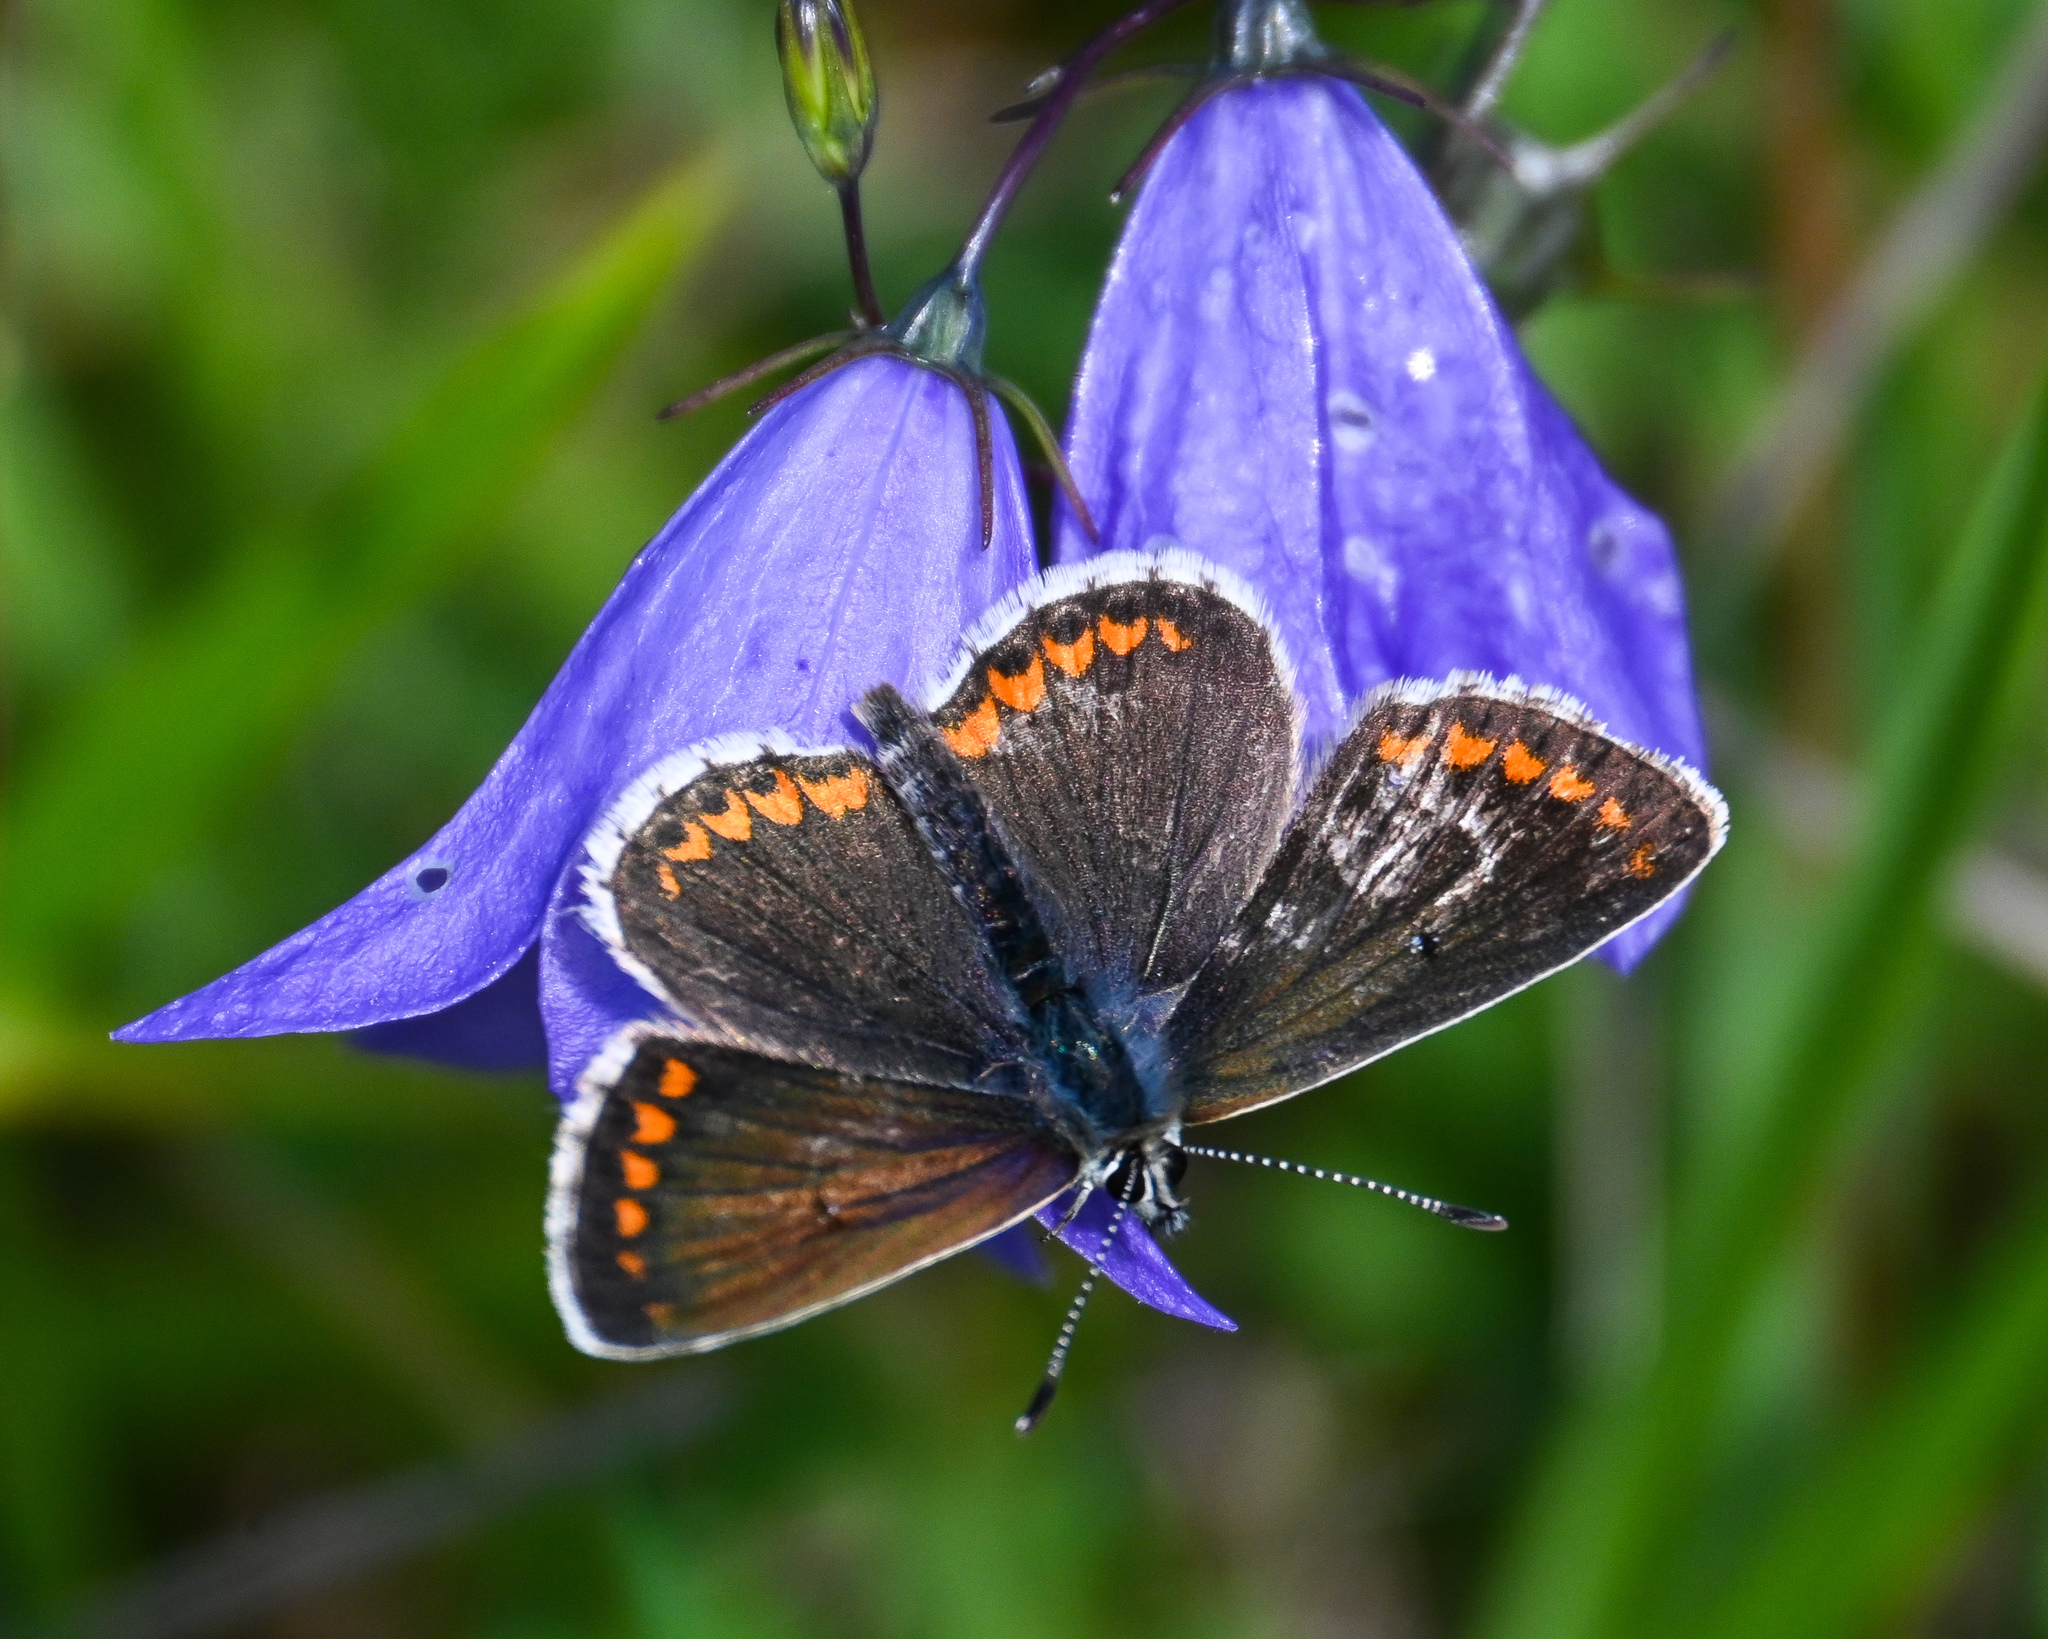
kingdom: Animalia
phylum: Arthropoda
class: Insecta
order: Lepidoptera
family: Lycaenidae
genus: Aricia
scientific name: Aricia agestis
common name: Brown argus
